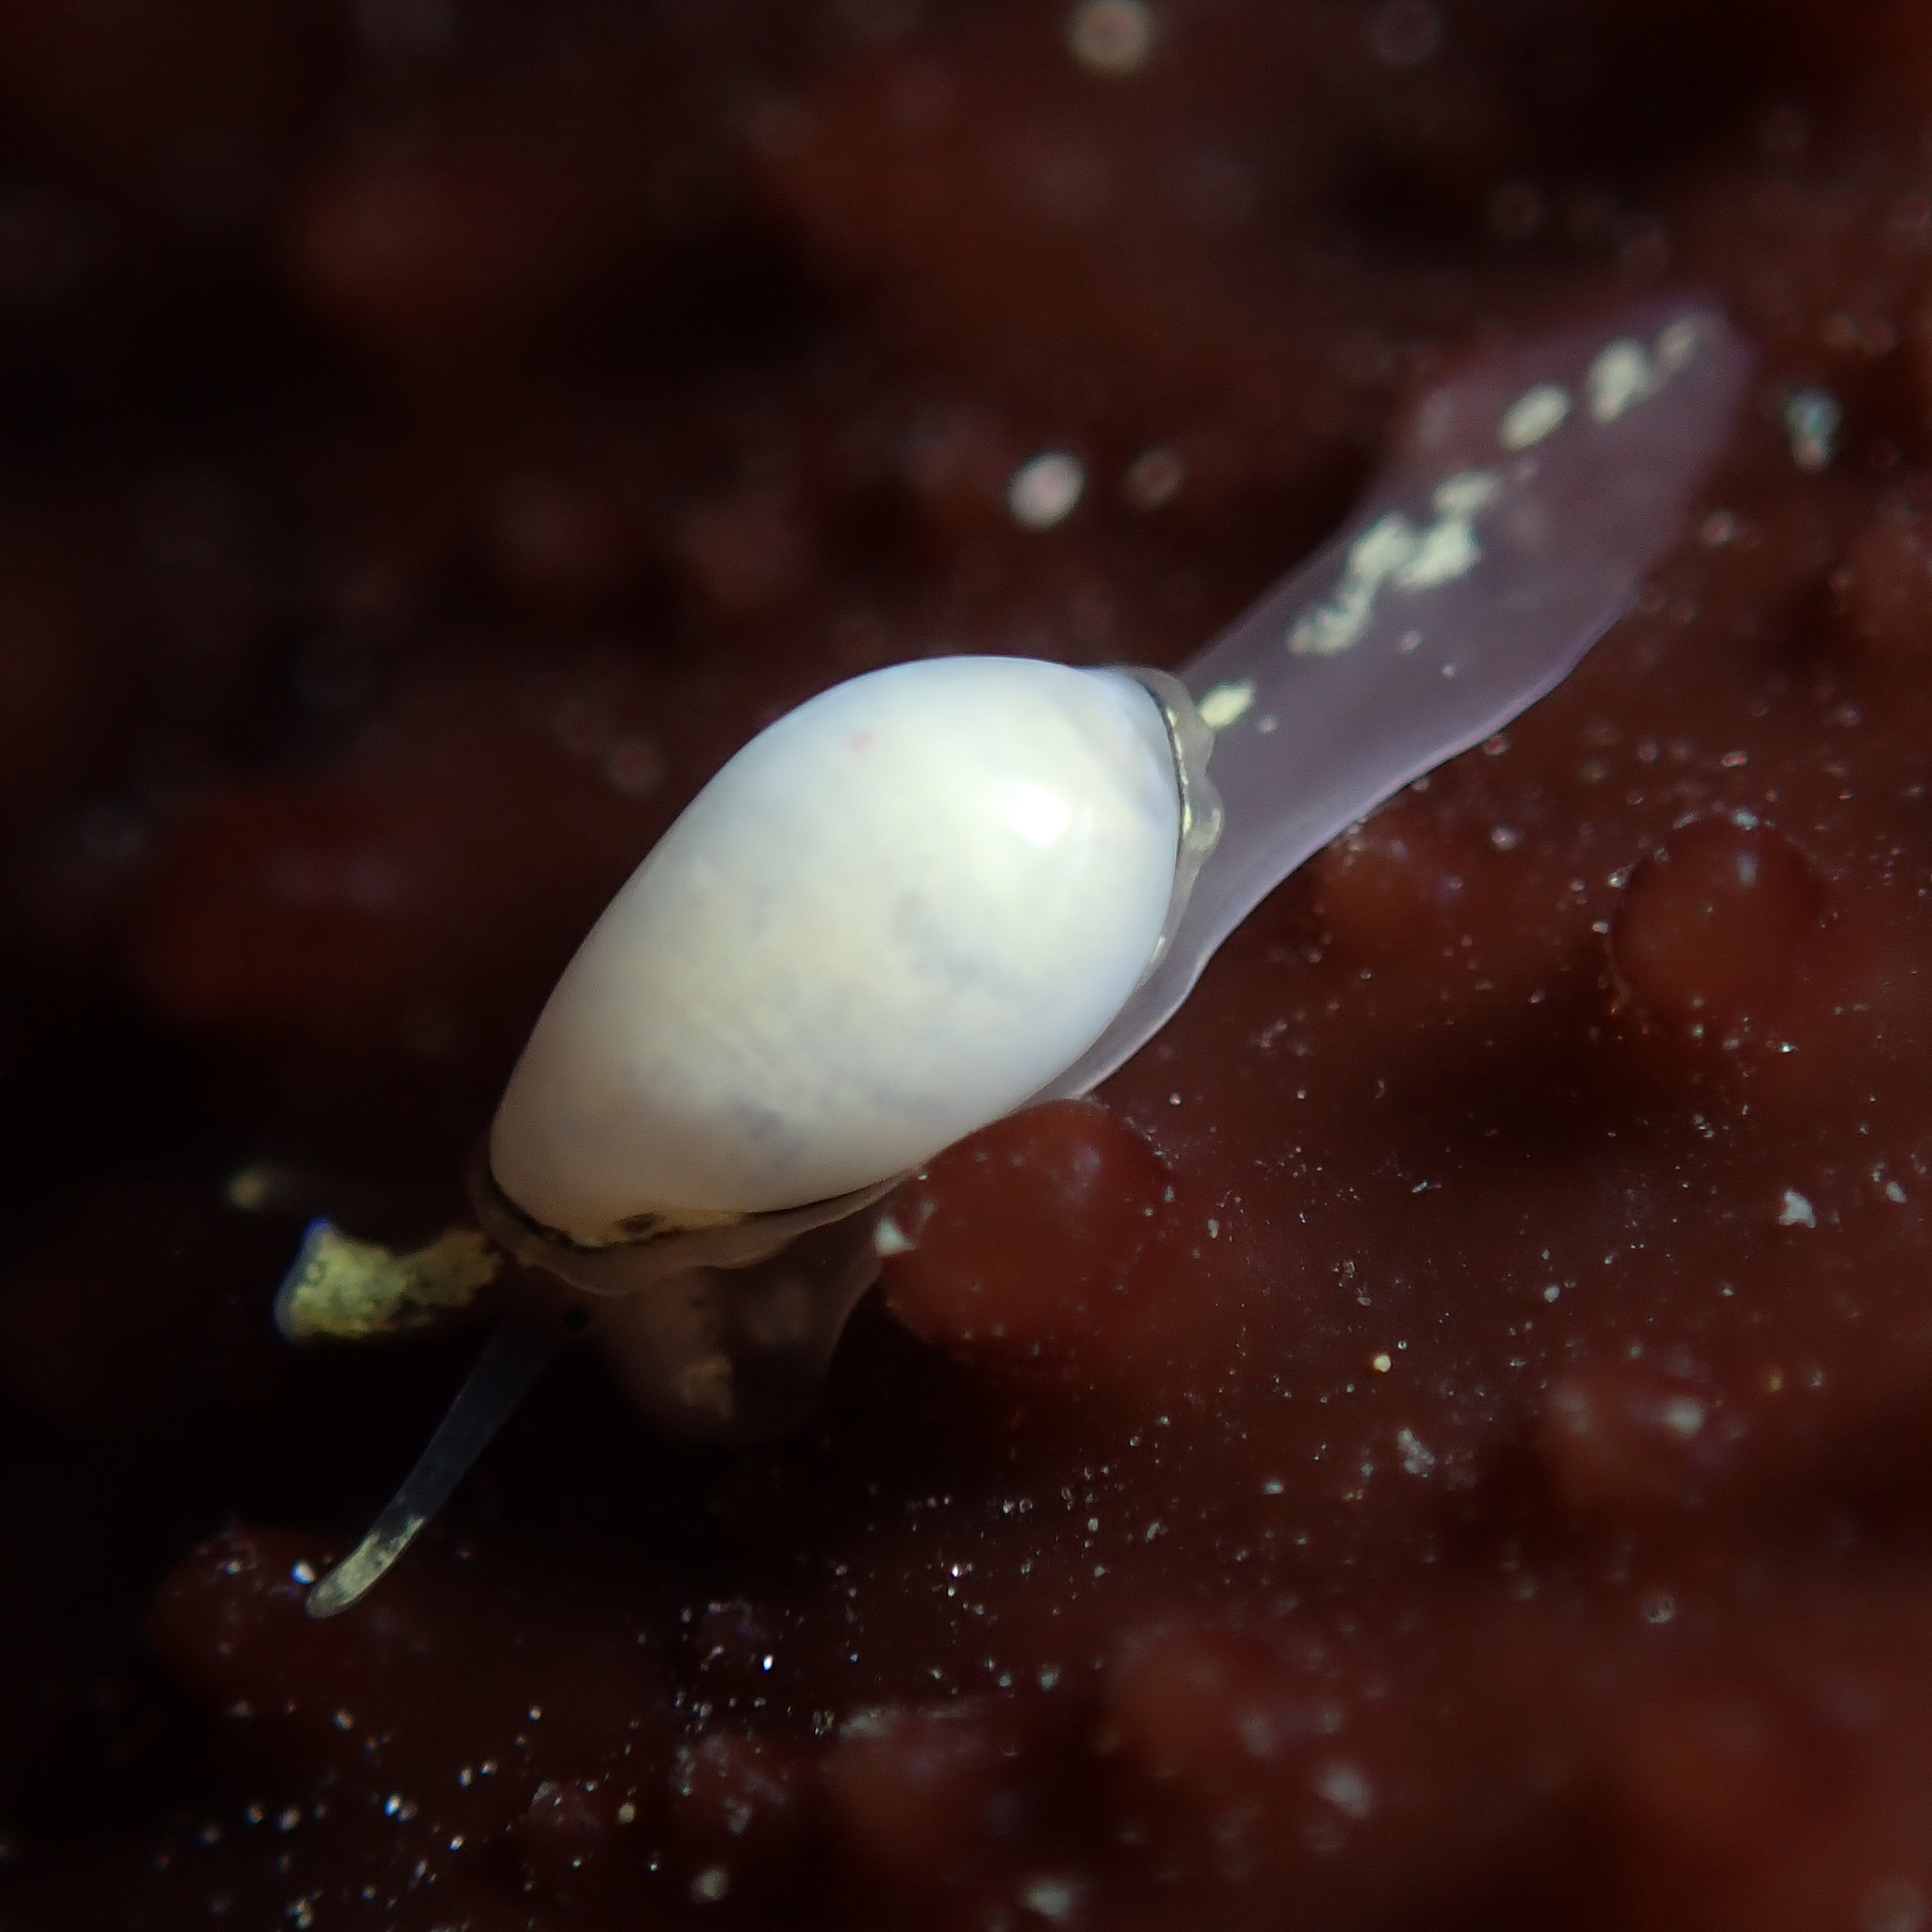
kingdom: Animalia
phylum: Mollusca
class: Gastropoda
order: Neogastropoda
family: Granulinidae
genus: Granulina
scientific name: Granulina margaritula
